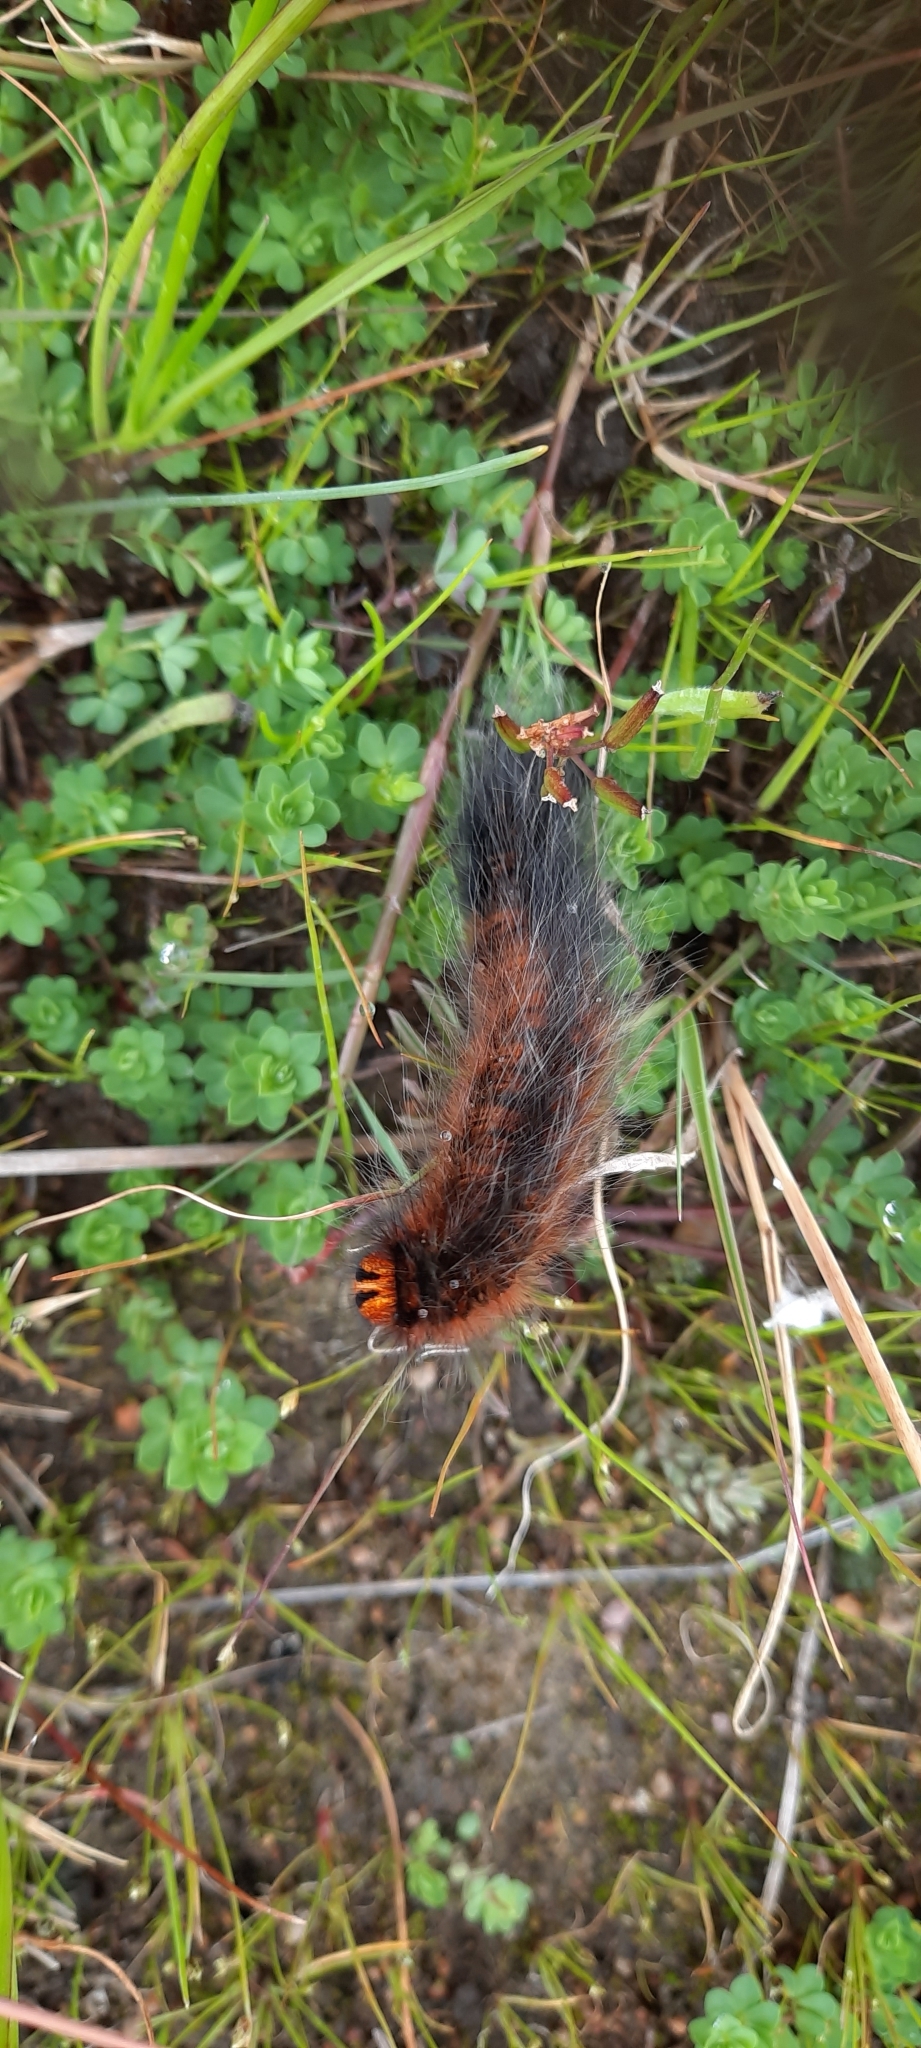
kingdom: Animalia
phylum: Arthropoda
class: Insecta
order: Lepidoptera
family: Lasiocampidae
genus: Mesocelis
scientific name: Mesocelis monticola
